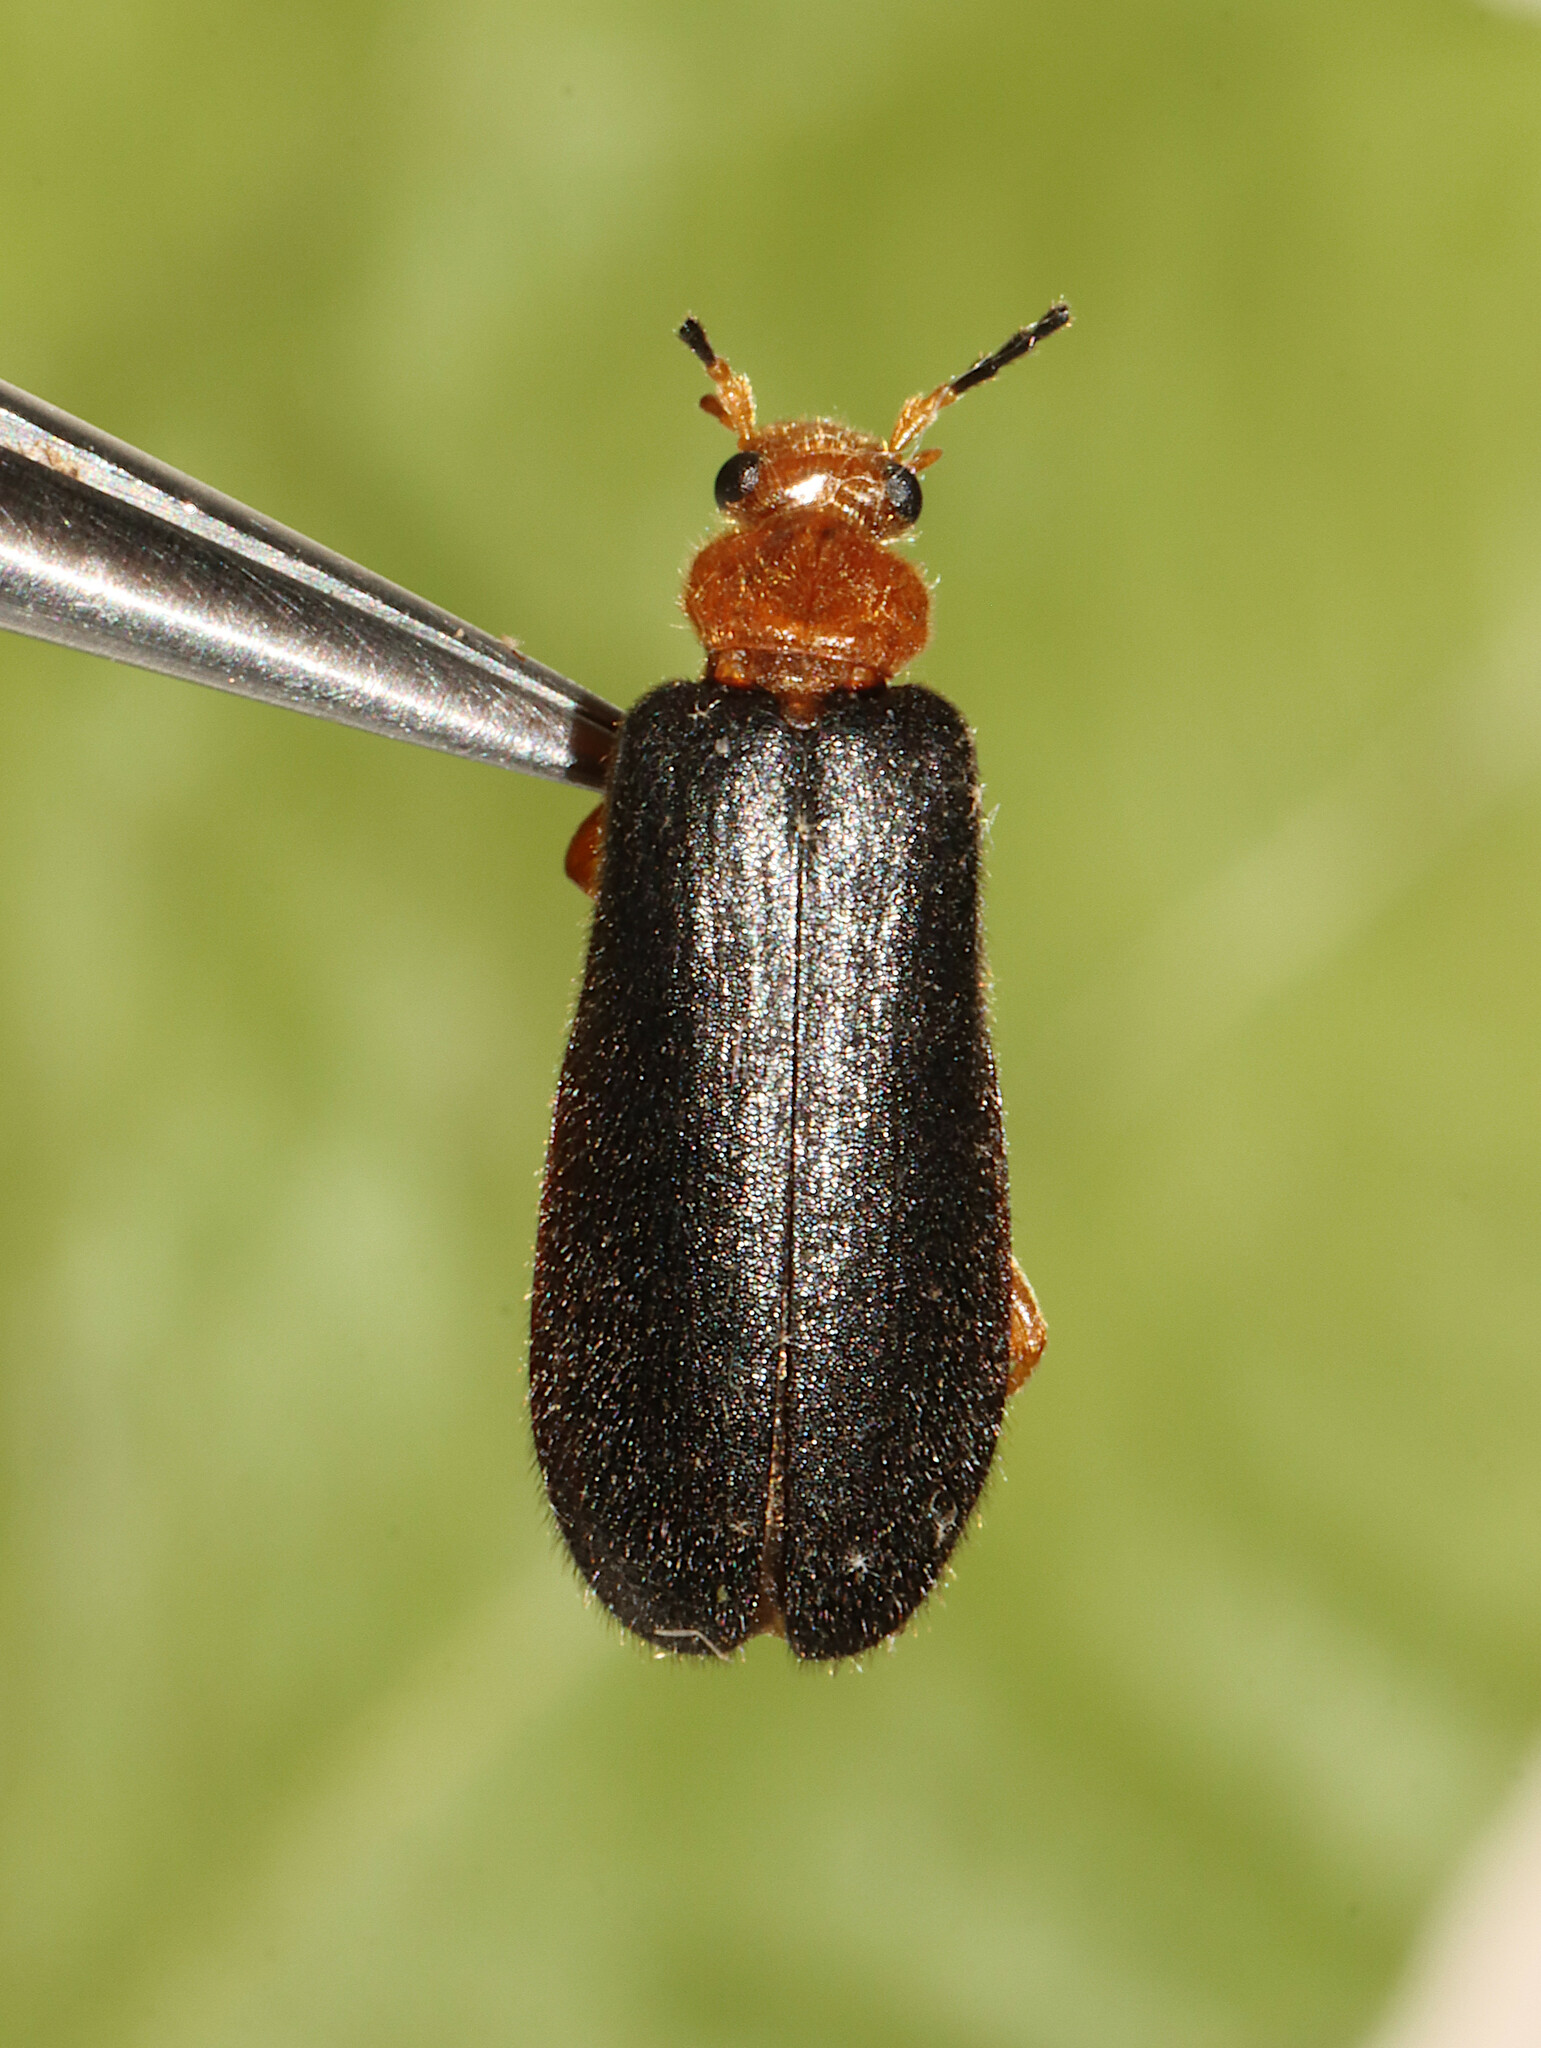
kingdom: Animalia
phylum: Arthropoda
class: Insecta
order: Coleoptera
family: Pyrochroidae
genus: Neopyrochroa
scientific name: Neopyrochroa flabellata
